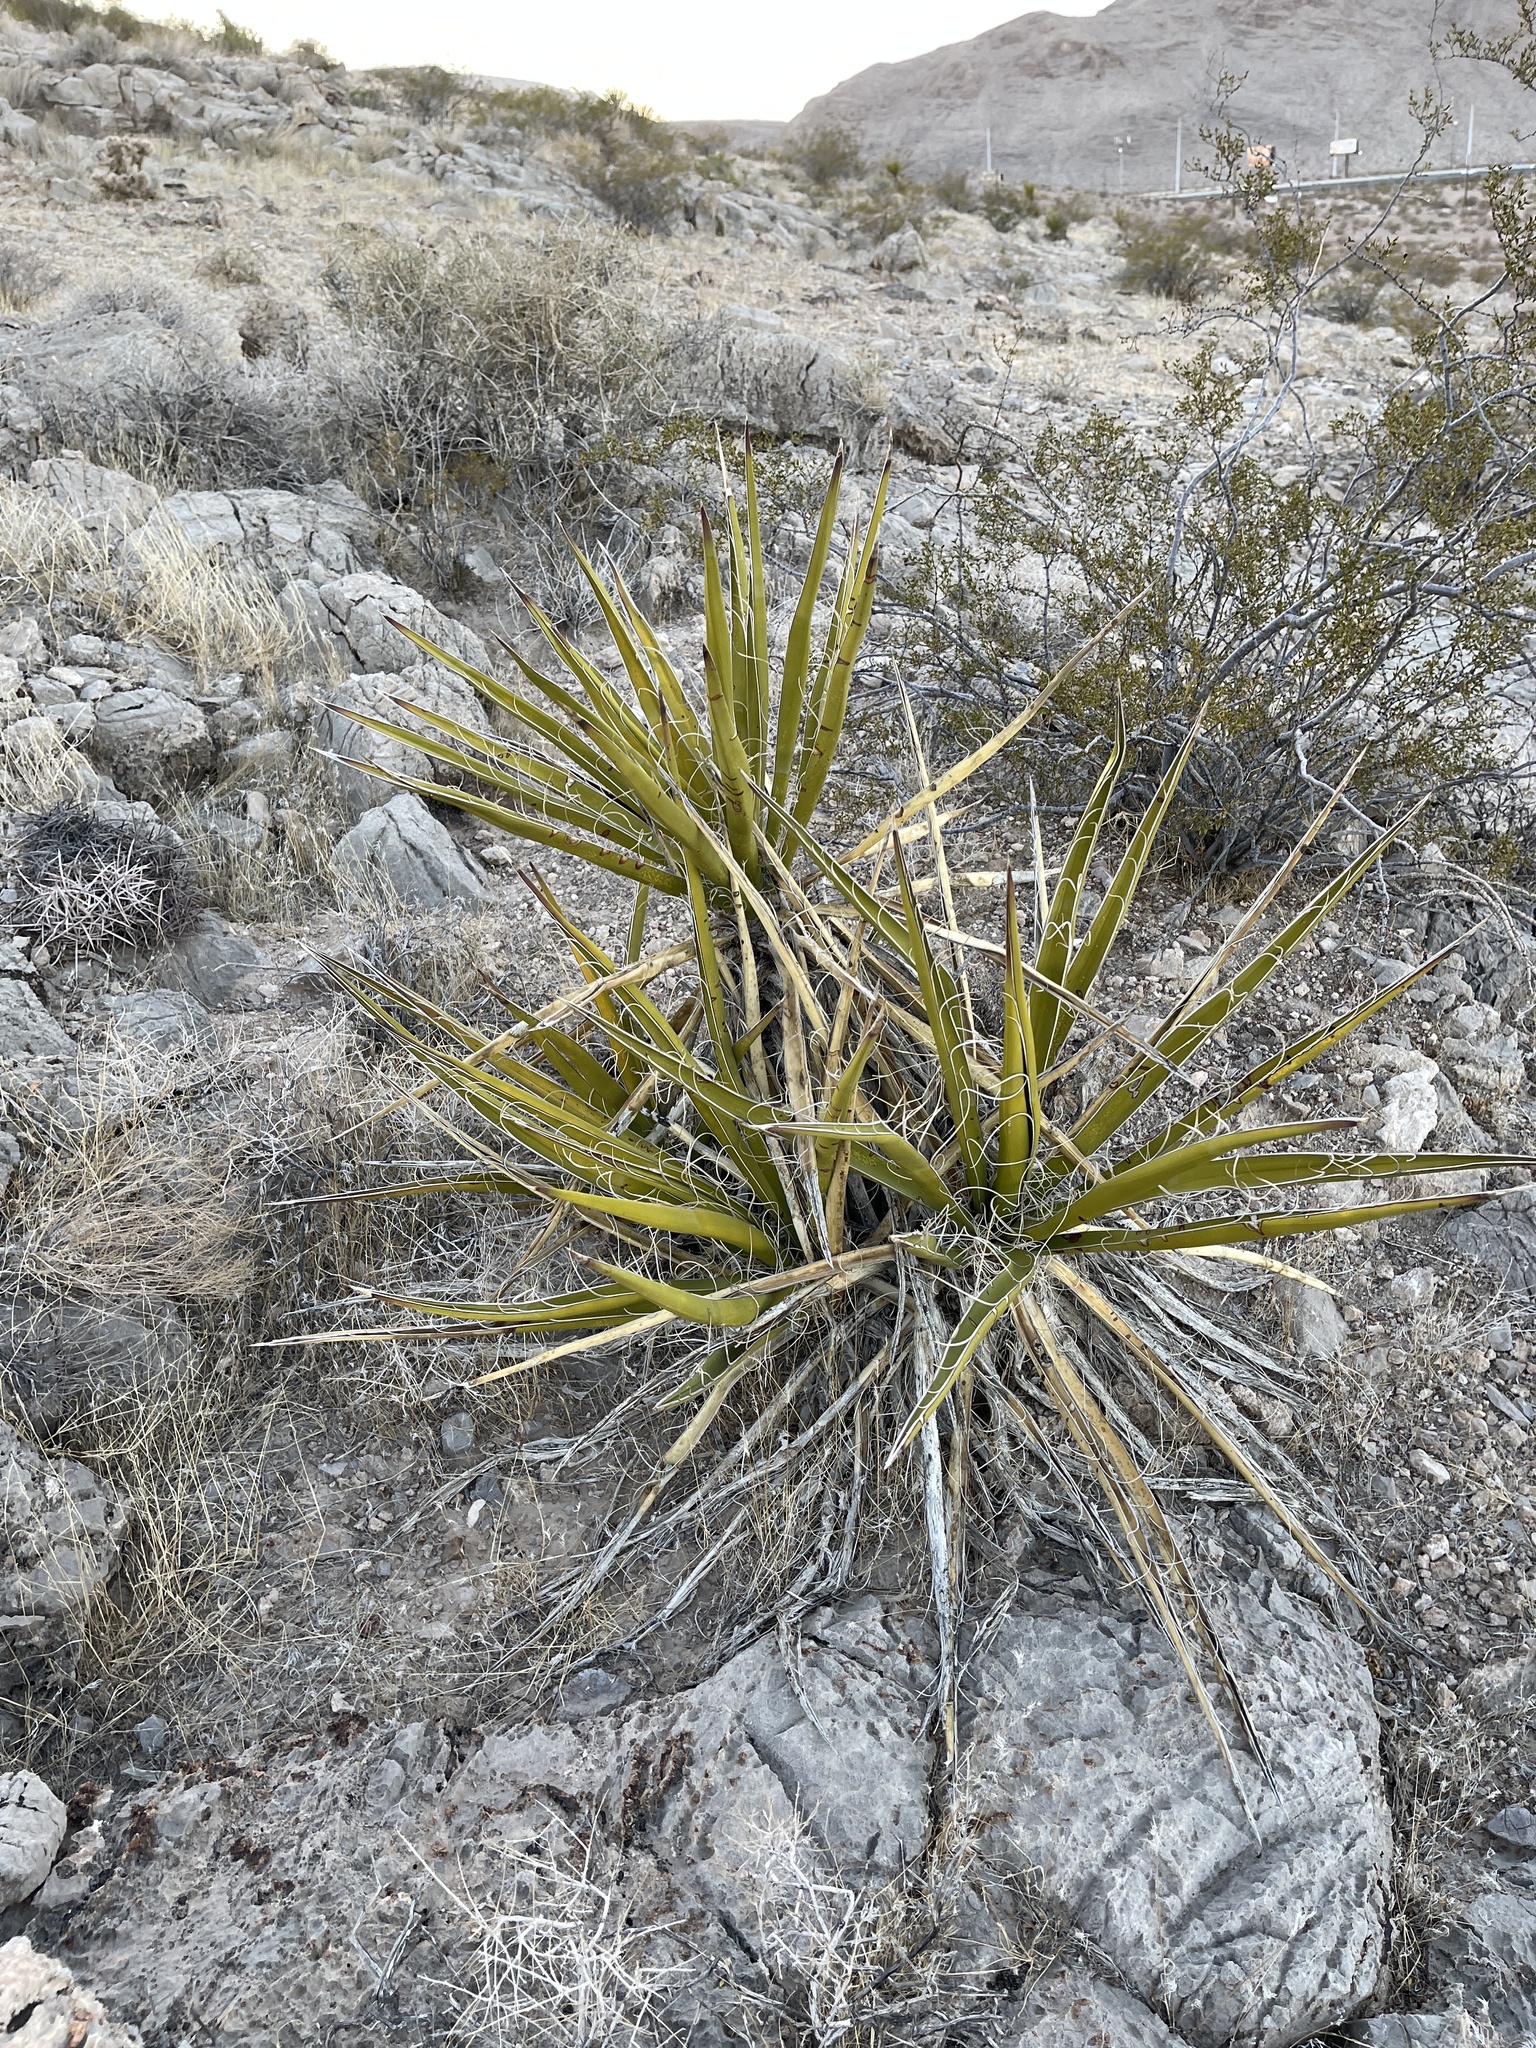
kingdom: Plantae
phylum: Tracheophyta
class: Liliopsida
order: Asparagales
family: Asparagaceae
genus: Yucca
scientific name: Yucca schidigera
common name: Mojave yucca
